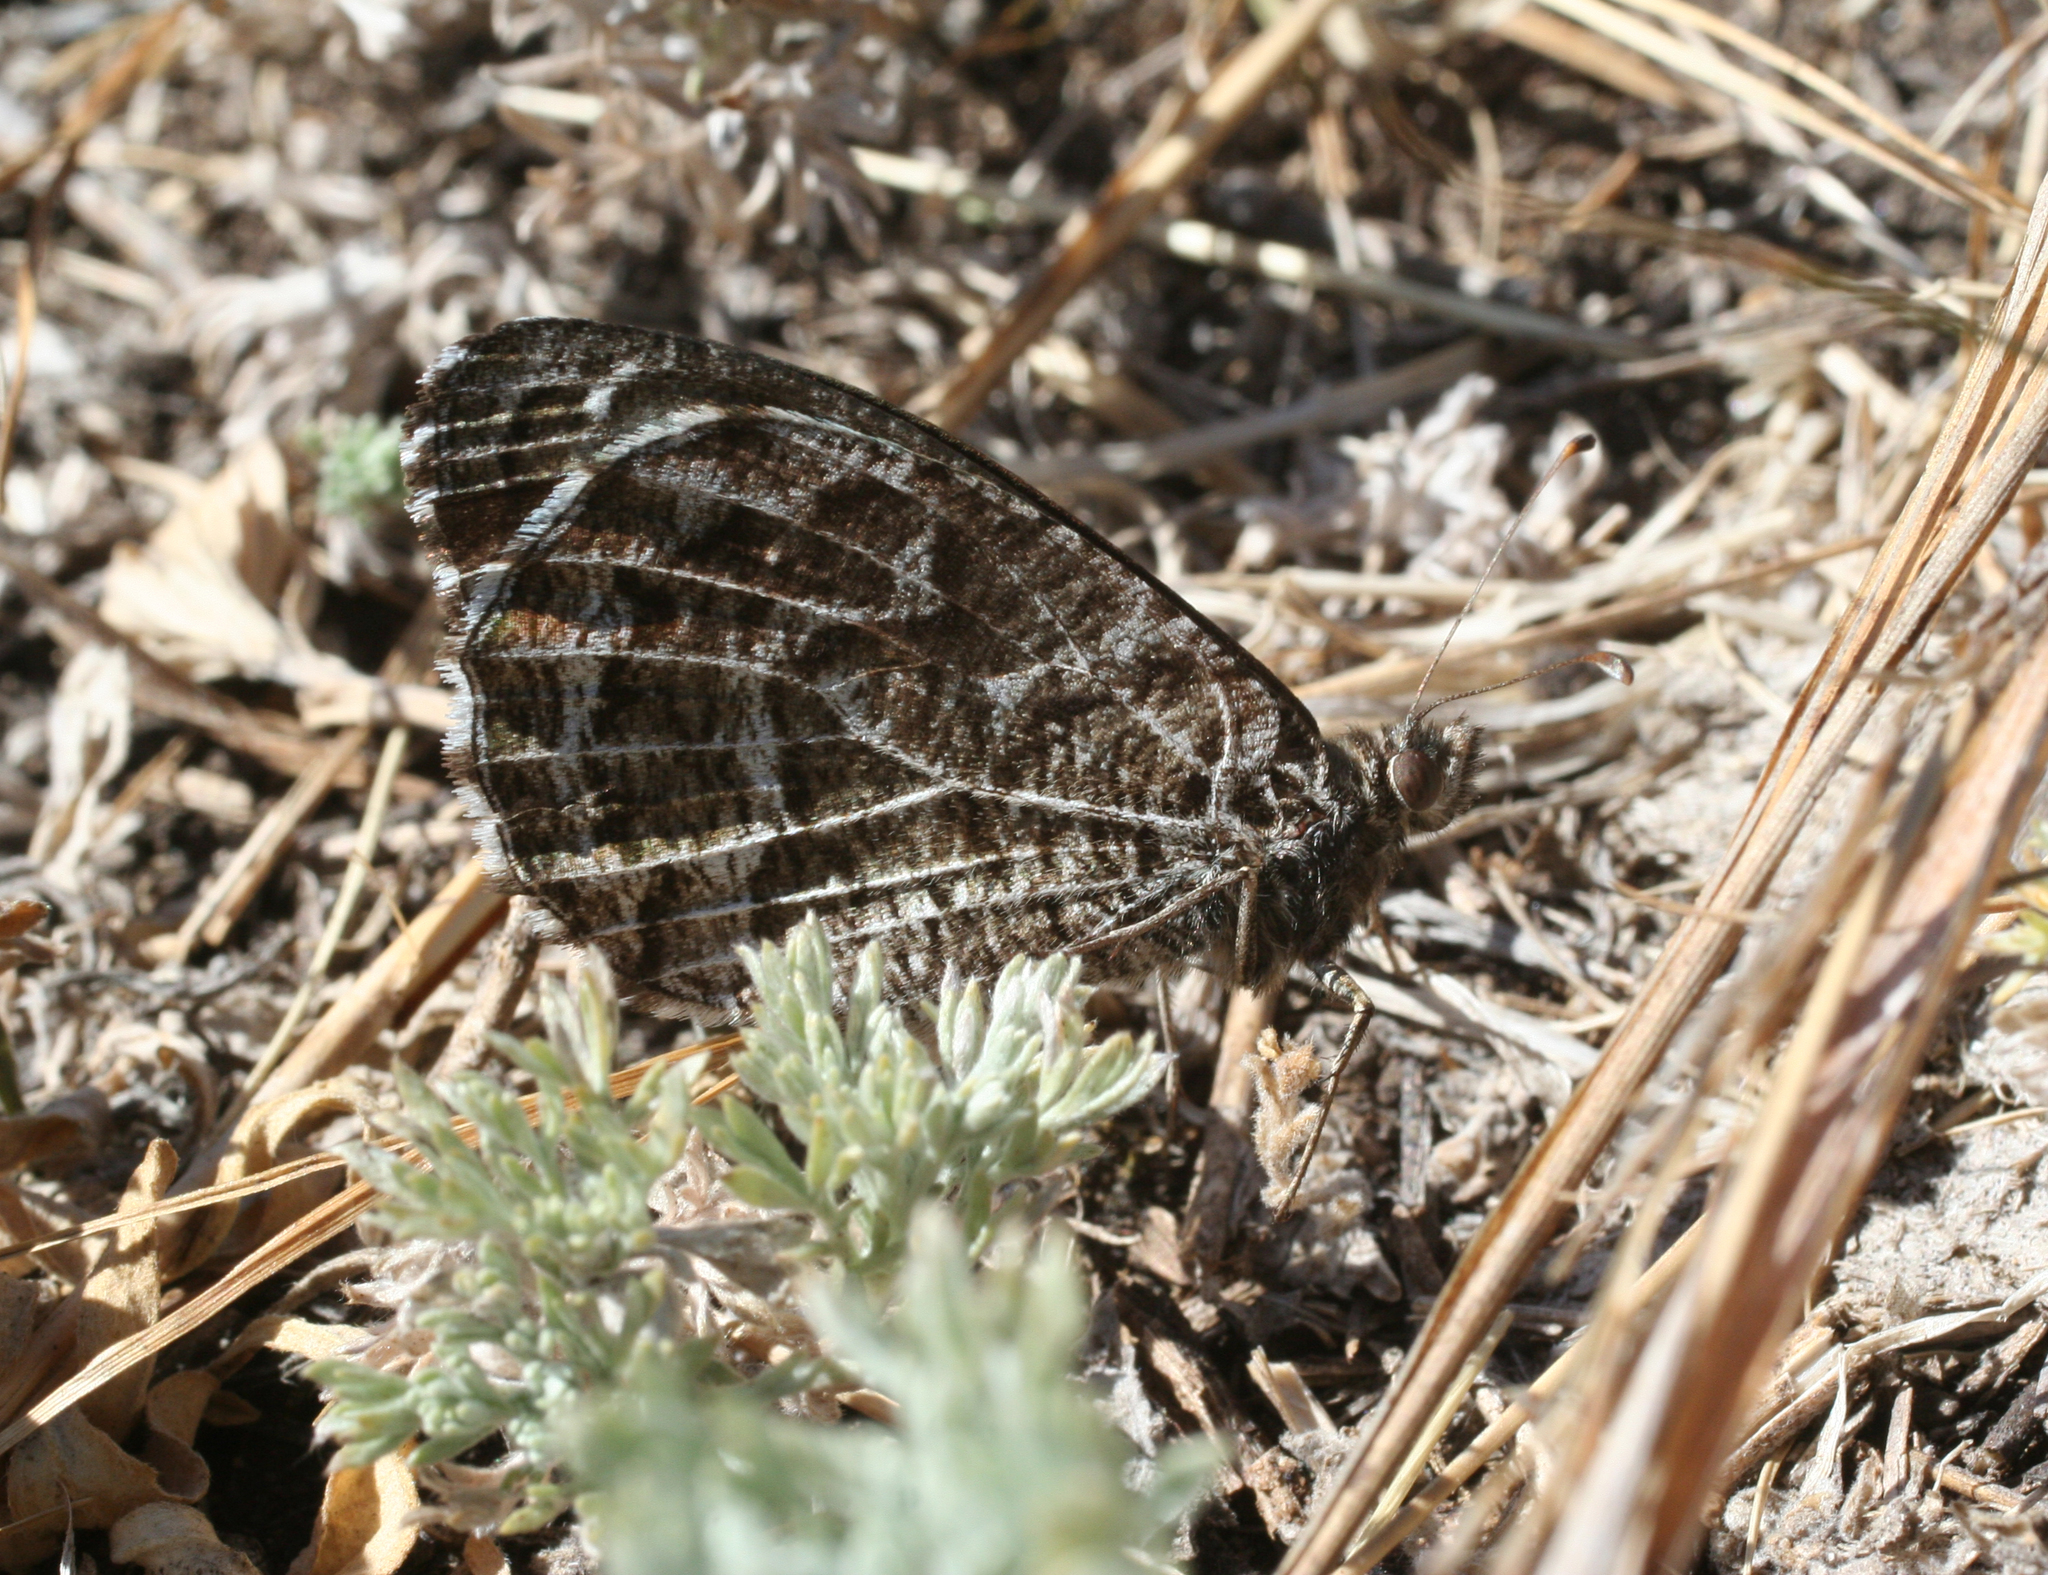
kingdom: Animalia
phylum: Arthropoda
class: Insecta
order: Lepidoptera
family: Nymphalidae
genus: Hipparchia
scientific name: Hipparchia autonoe
